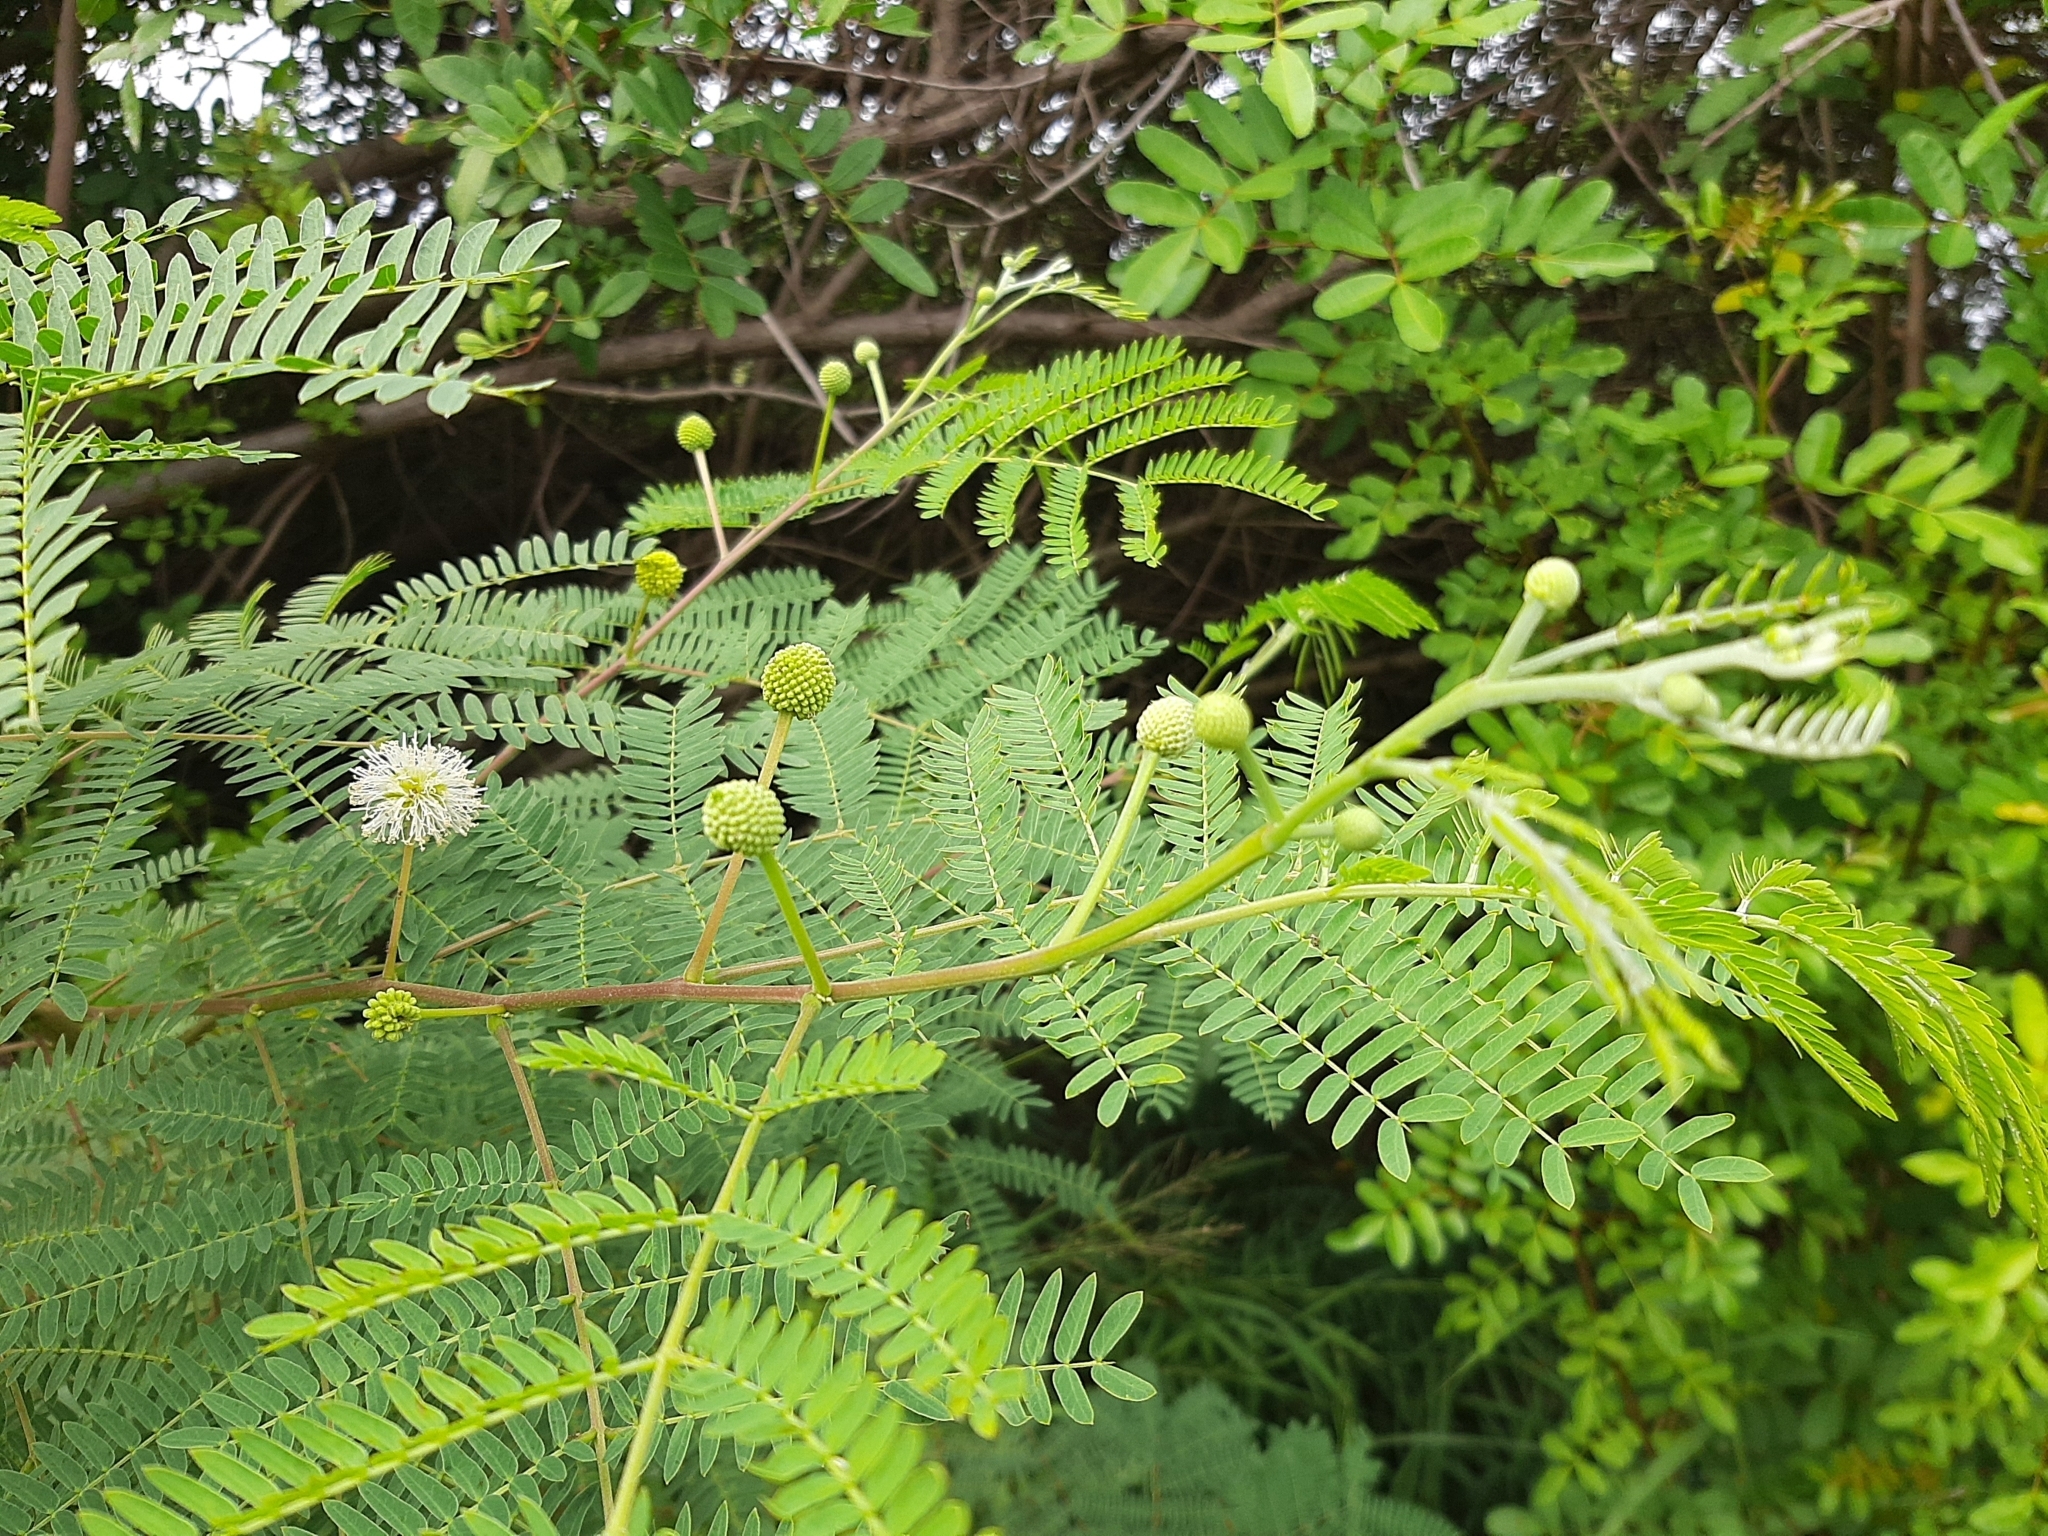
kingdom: Plantae
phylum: Tracheophyta
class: Magnoliopsida
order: Fabales
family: Fabaceae
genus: Leucaena
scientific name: Leucaena leucocephala
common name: White leadtree
